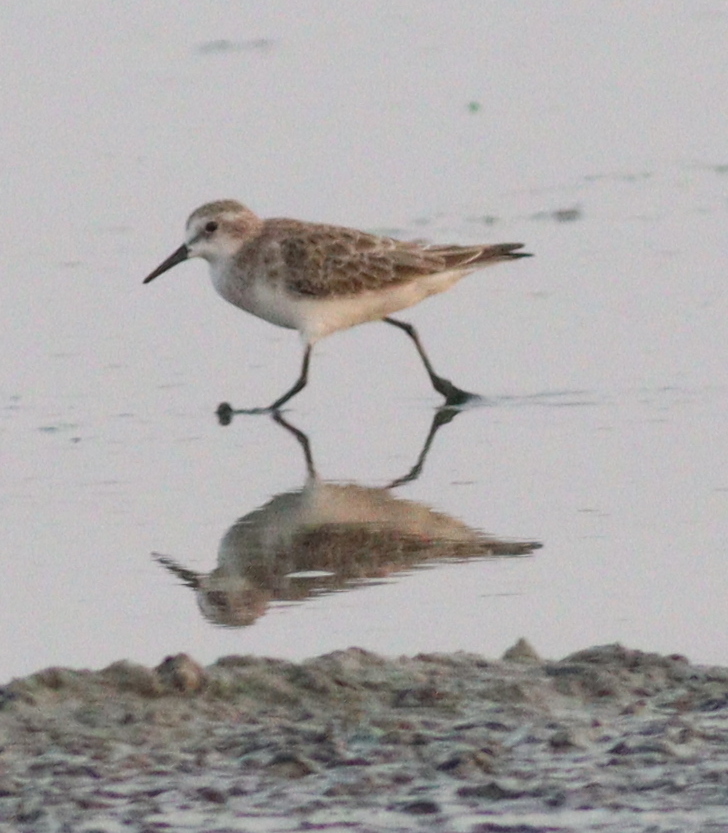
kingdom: Animalia
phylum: Chordata
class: Aves
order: Charadriiformes
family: Scolopacidae
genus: Calidris
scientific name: Calidris minuta
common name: Little stint
